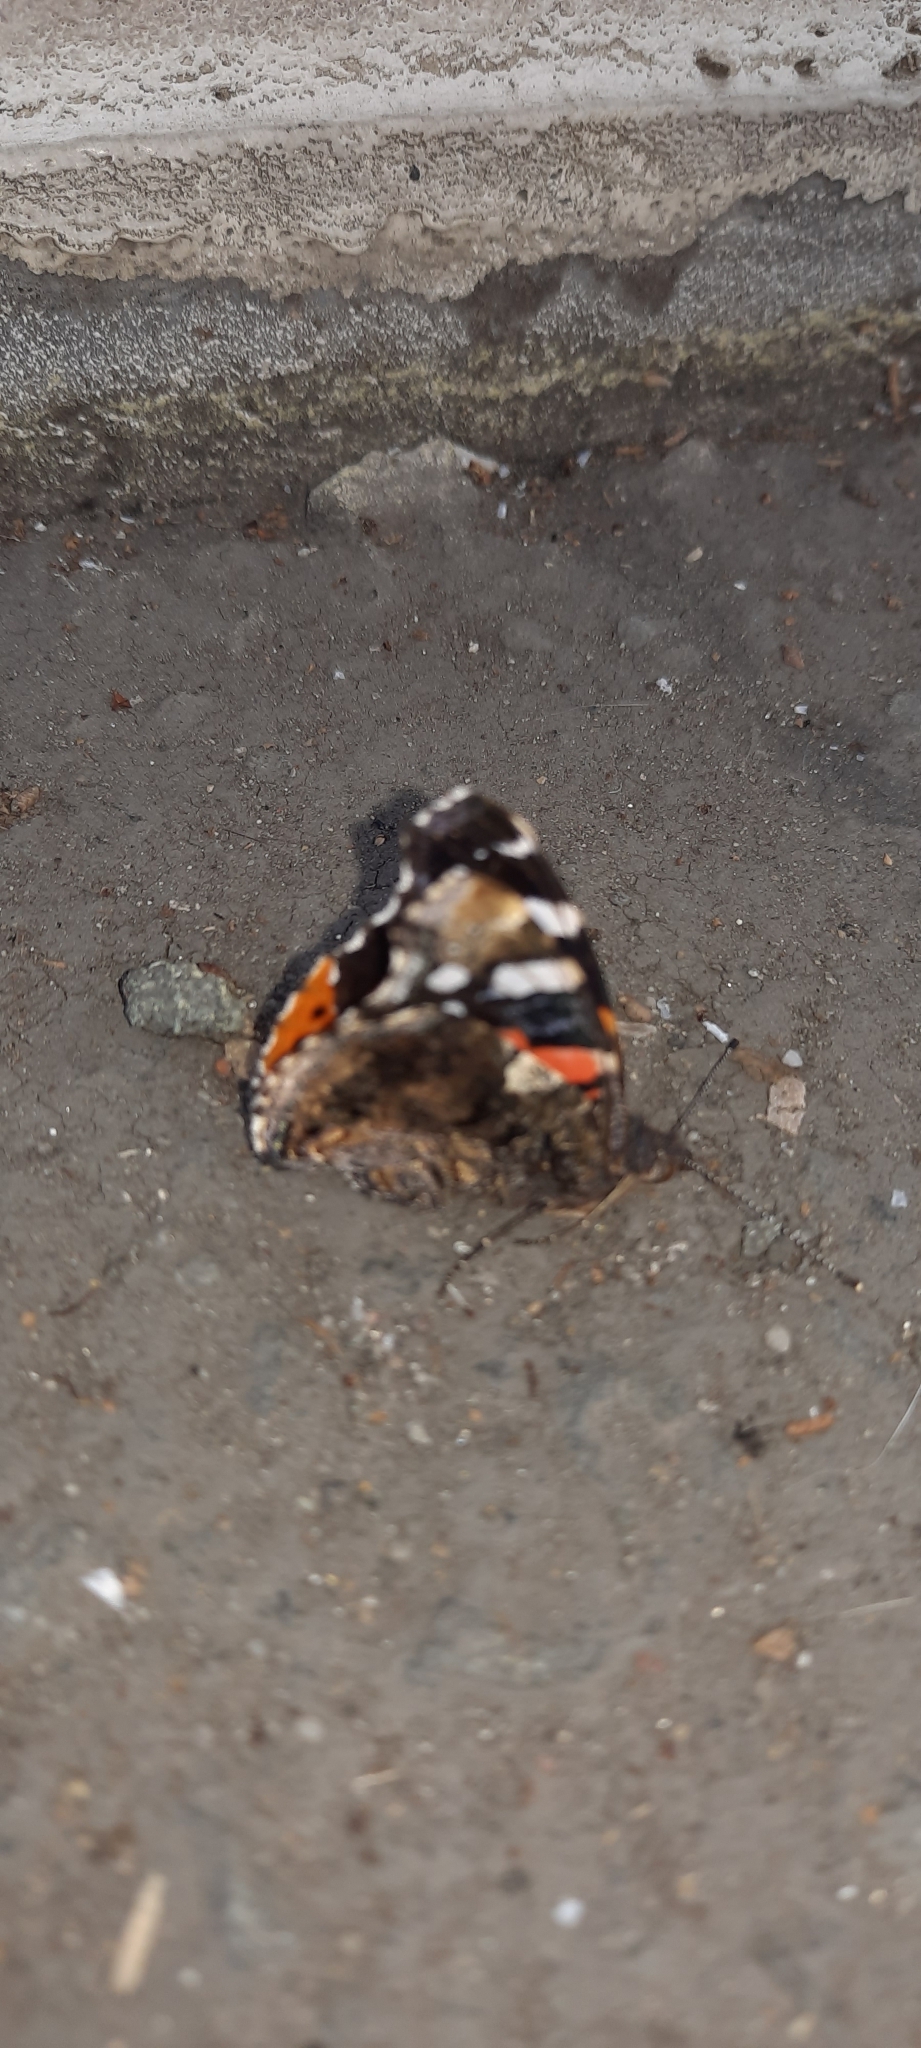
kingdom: Animalia
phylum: Arthropoda
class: Insecta
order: Lepidoptera
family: Nymphalidae
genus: Vanessa
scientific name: Vanessa atalanta
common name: Red admiral
